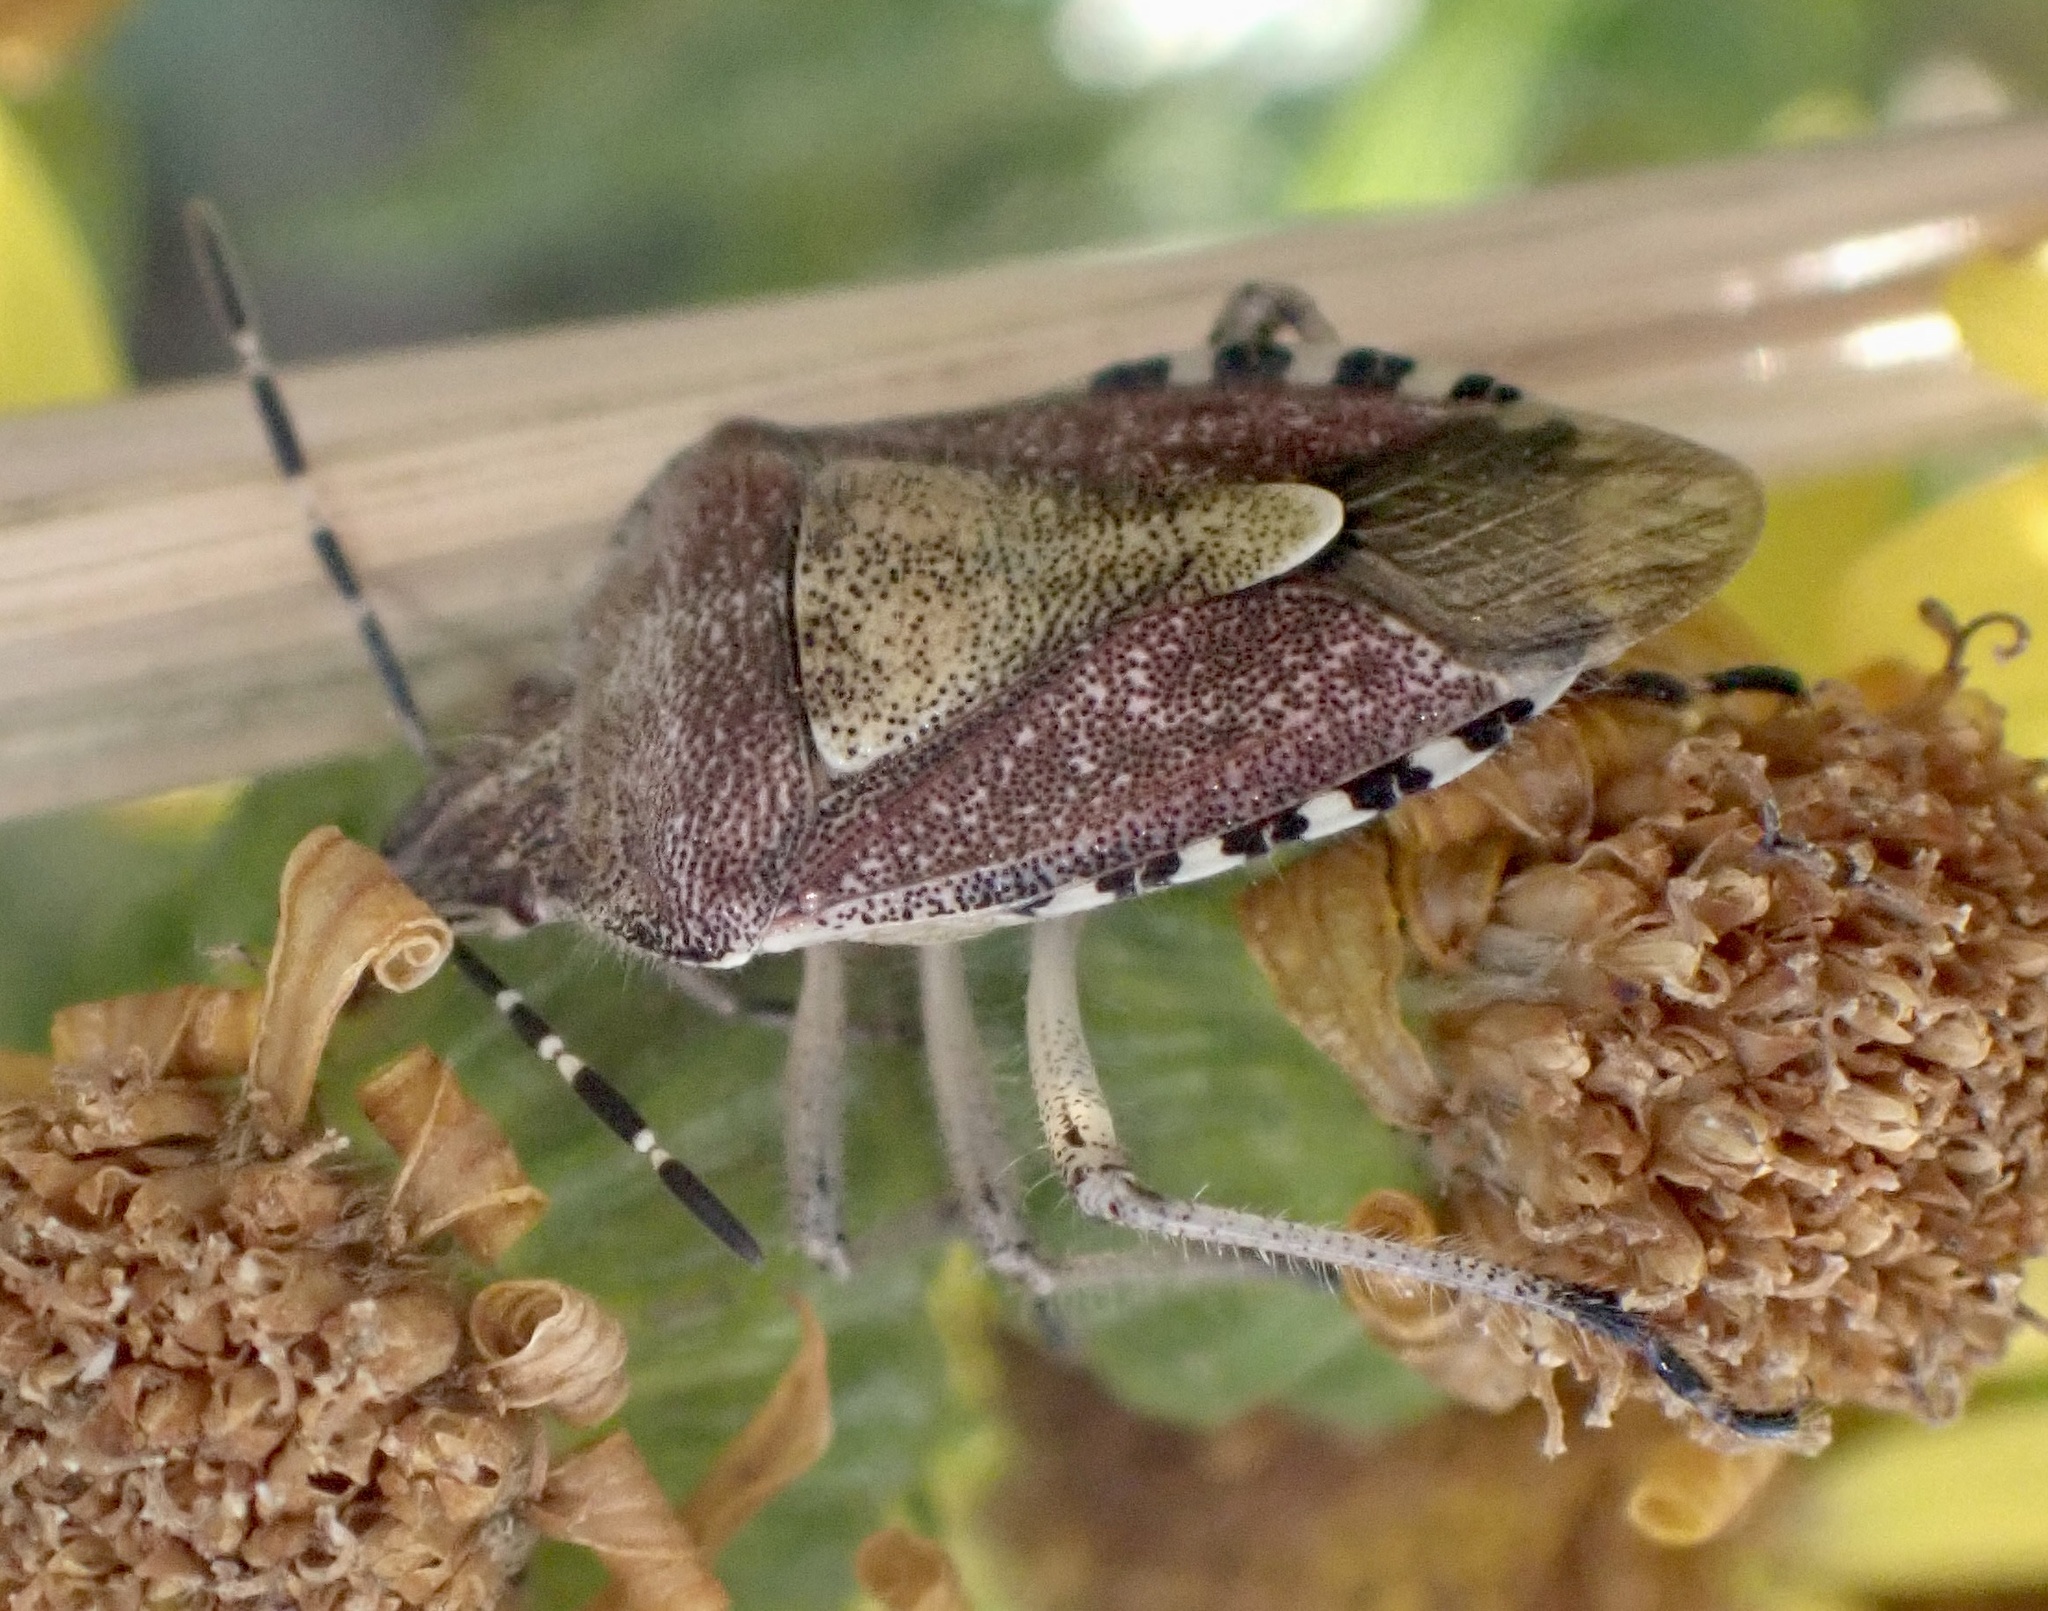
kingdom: Animalia
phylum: Arthropoda
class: Insecta
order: Hemiptera
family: Pentatomidae
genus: Dolycoris
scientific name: Dolycoris baccarum
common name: Sloe bug
